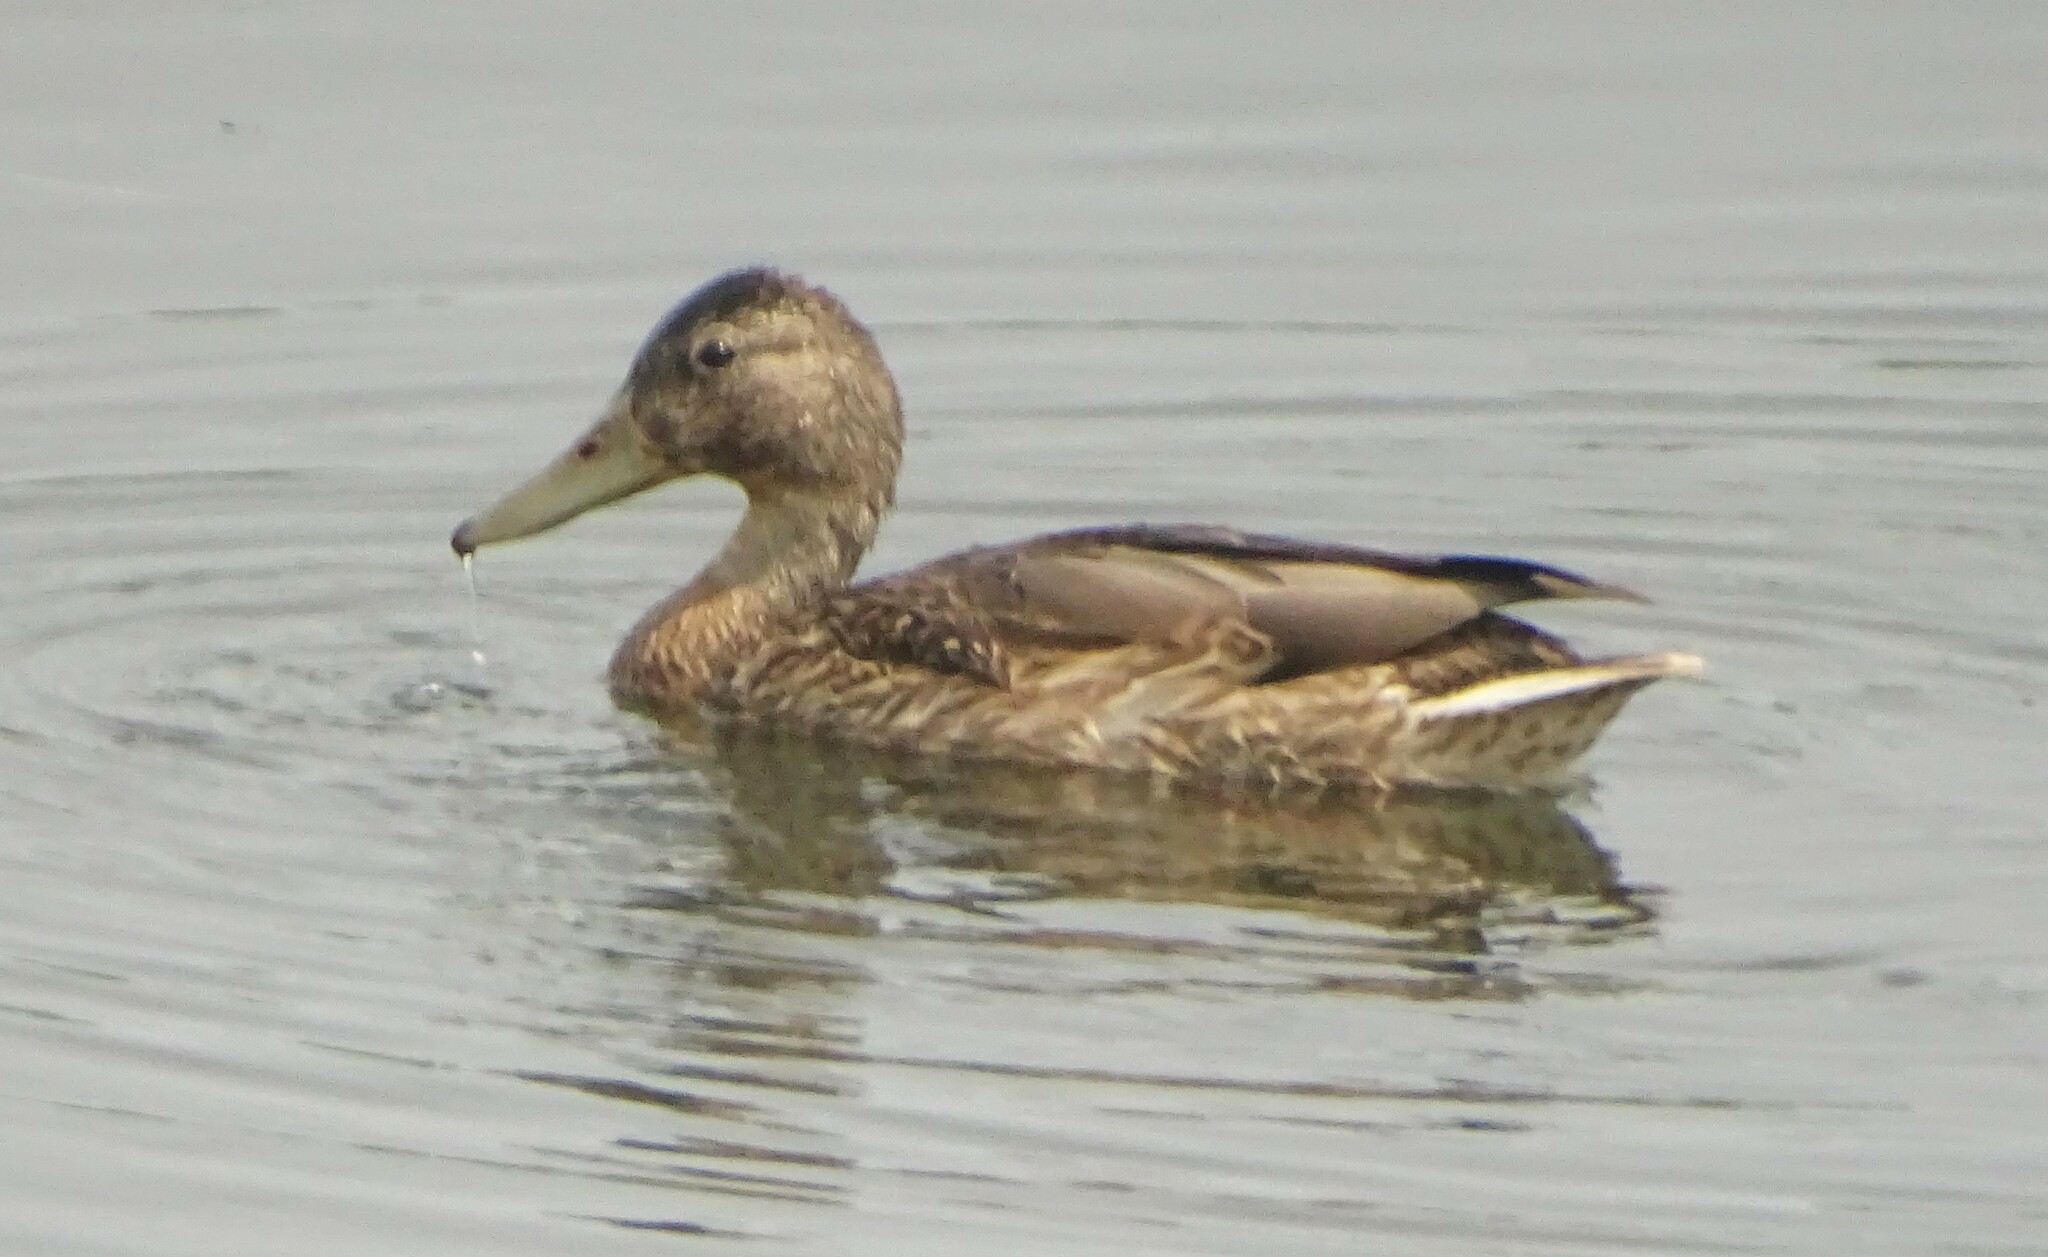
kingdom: Animalia
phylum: Chordata
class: Aves
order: Anseriformes
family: Anatidae
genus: Anas
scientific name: Anas platyrhynchos
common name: Mallard
